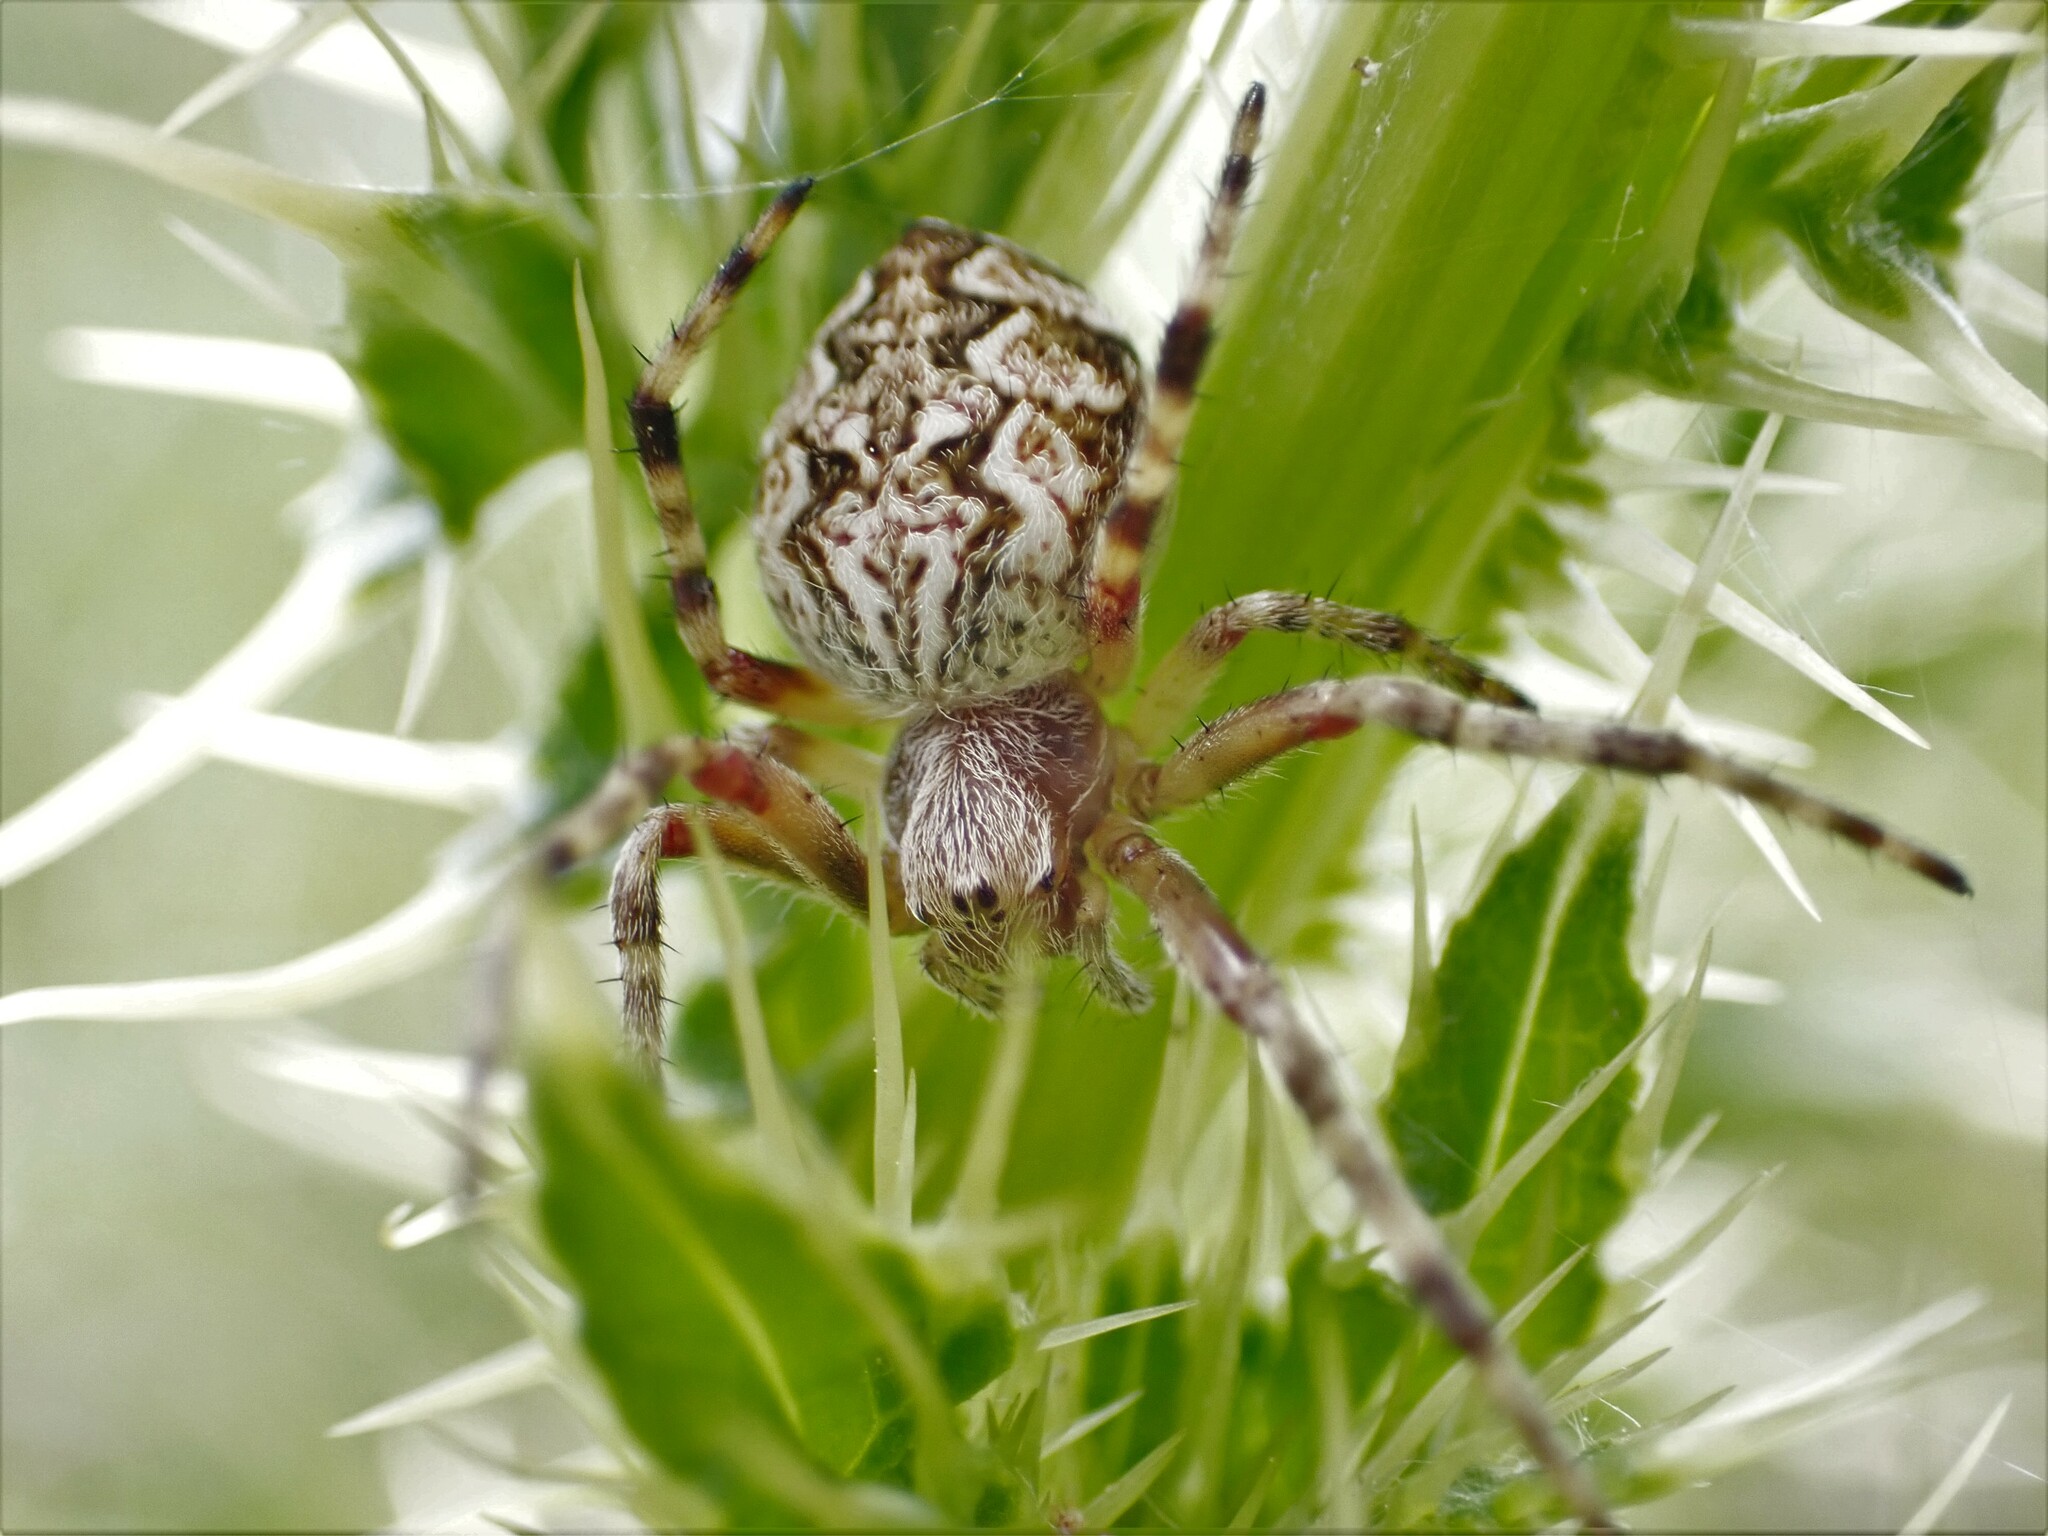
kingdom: Animalia
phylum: Arthropoda
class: Arachnida
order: Araneae
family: Araneidae
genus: Salsa
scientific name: Salsa fuliginata
